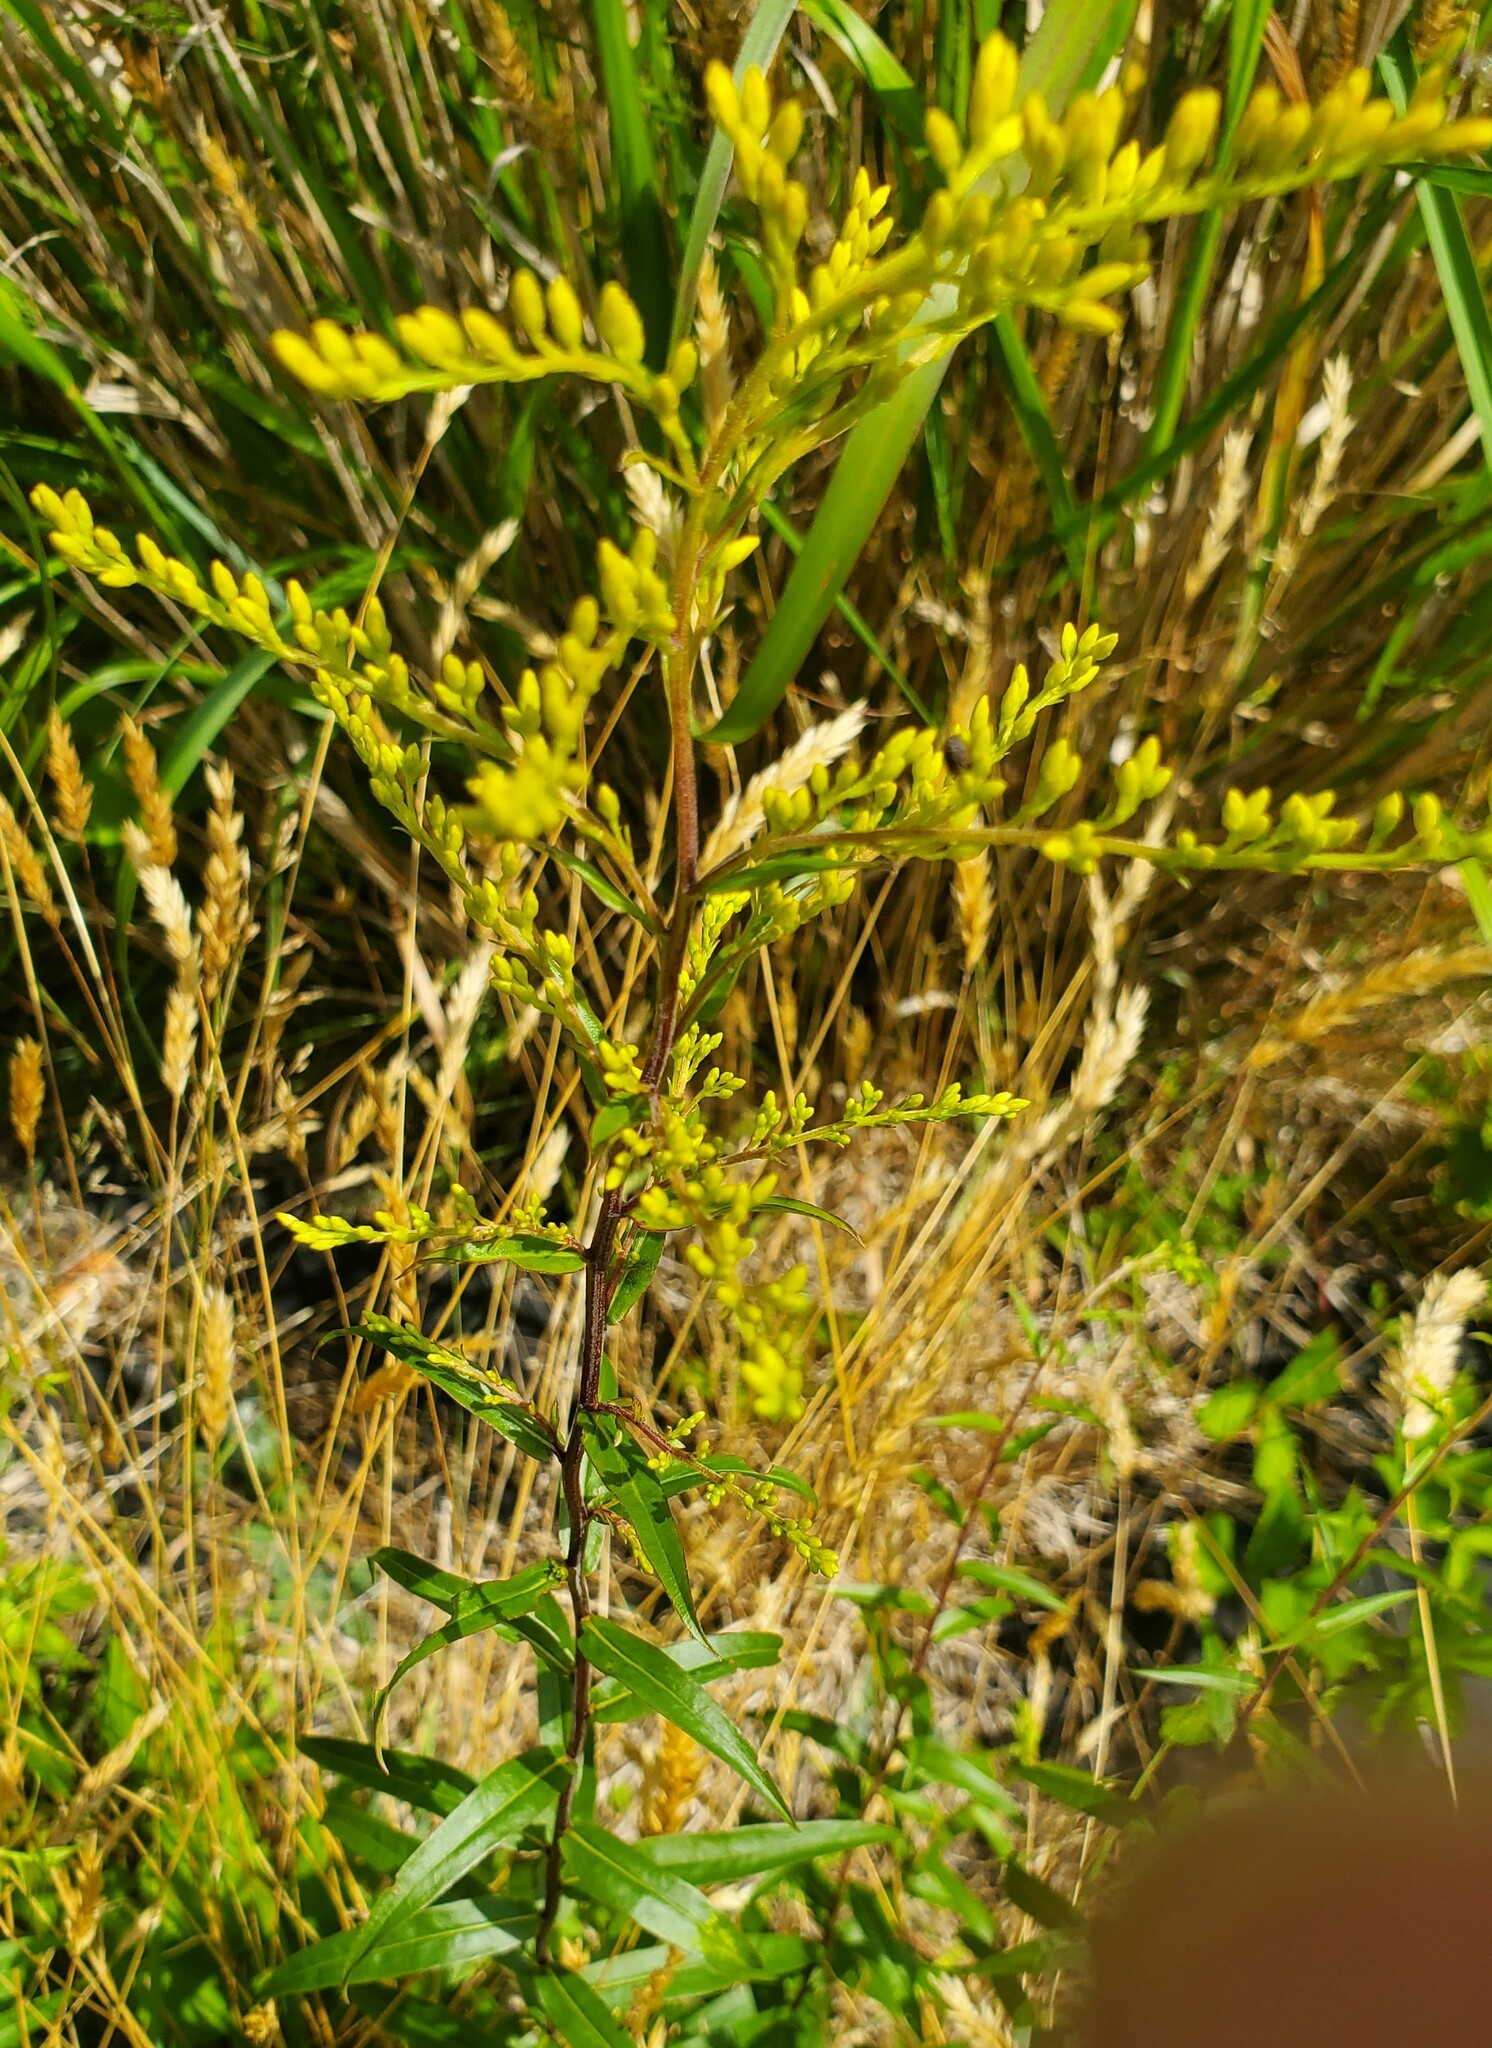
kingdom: Plantae
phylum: Tracheophyta
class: Magnoliopsida
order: Asterales
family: Asteraceae
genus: Solidago
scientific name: Solidago odora
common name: Anise-scented goldenrod
